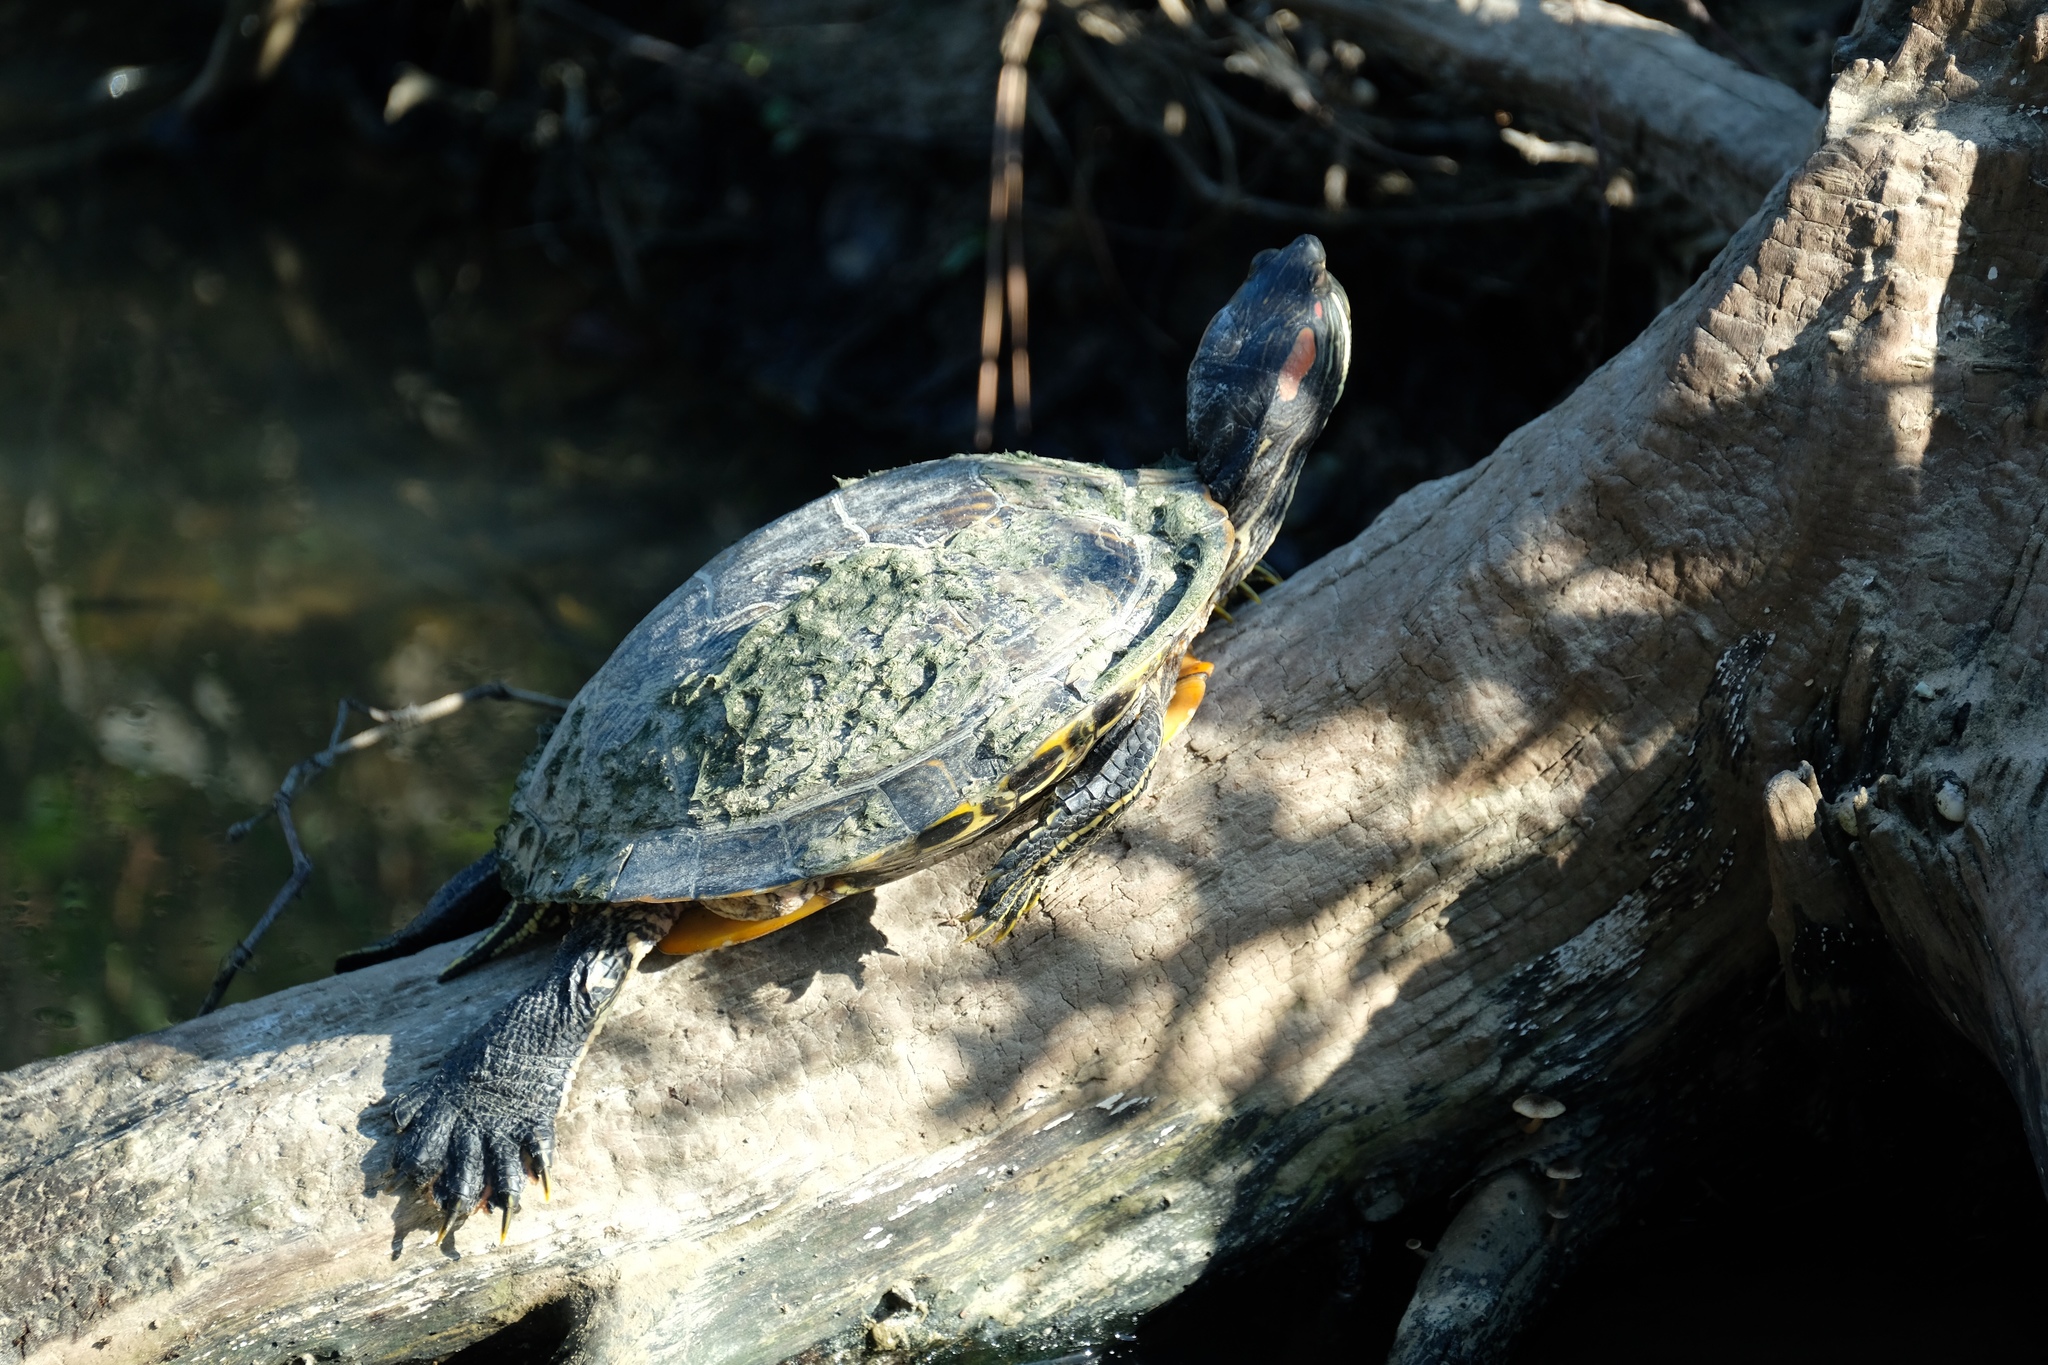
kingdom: Animalia
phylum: Chordata
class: Testudines
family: Emydidae
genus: Trachemys
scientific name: Trachemys scripta
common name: Slider
